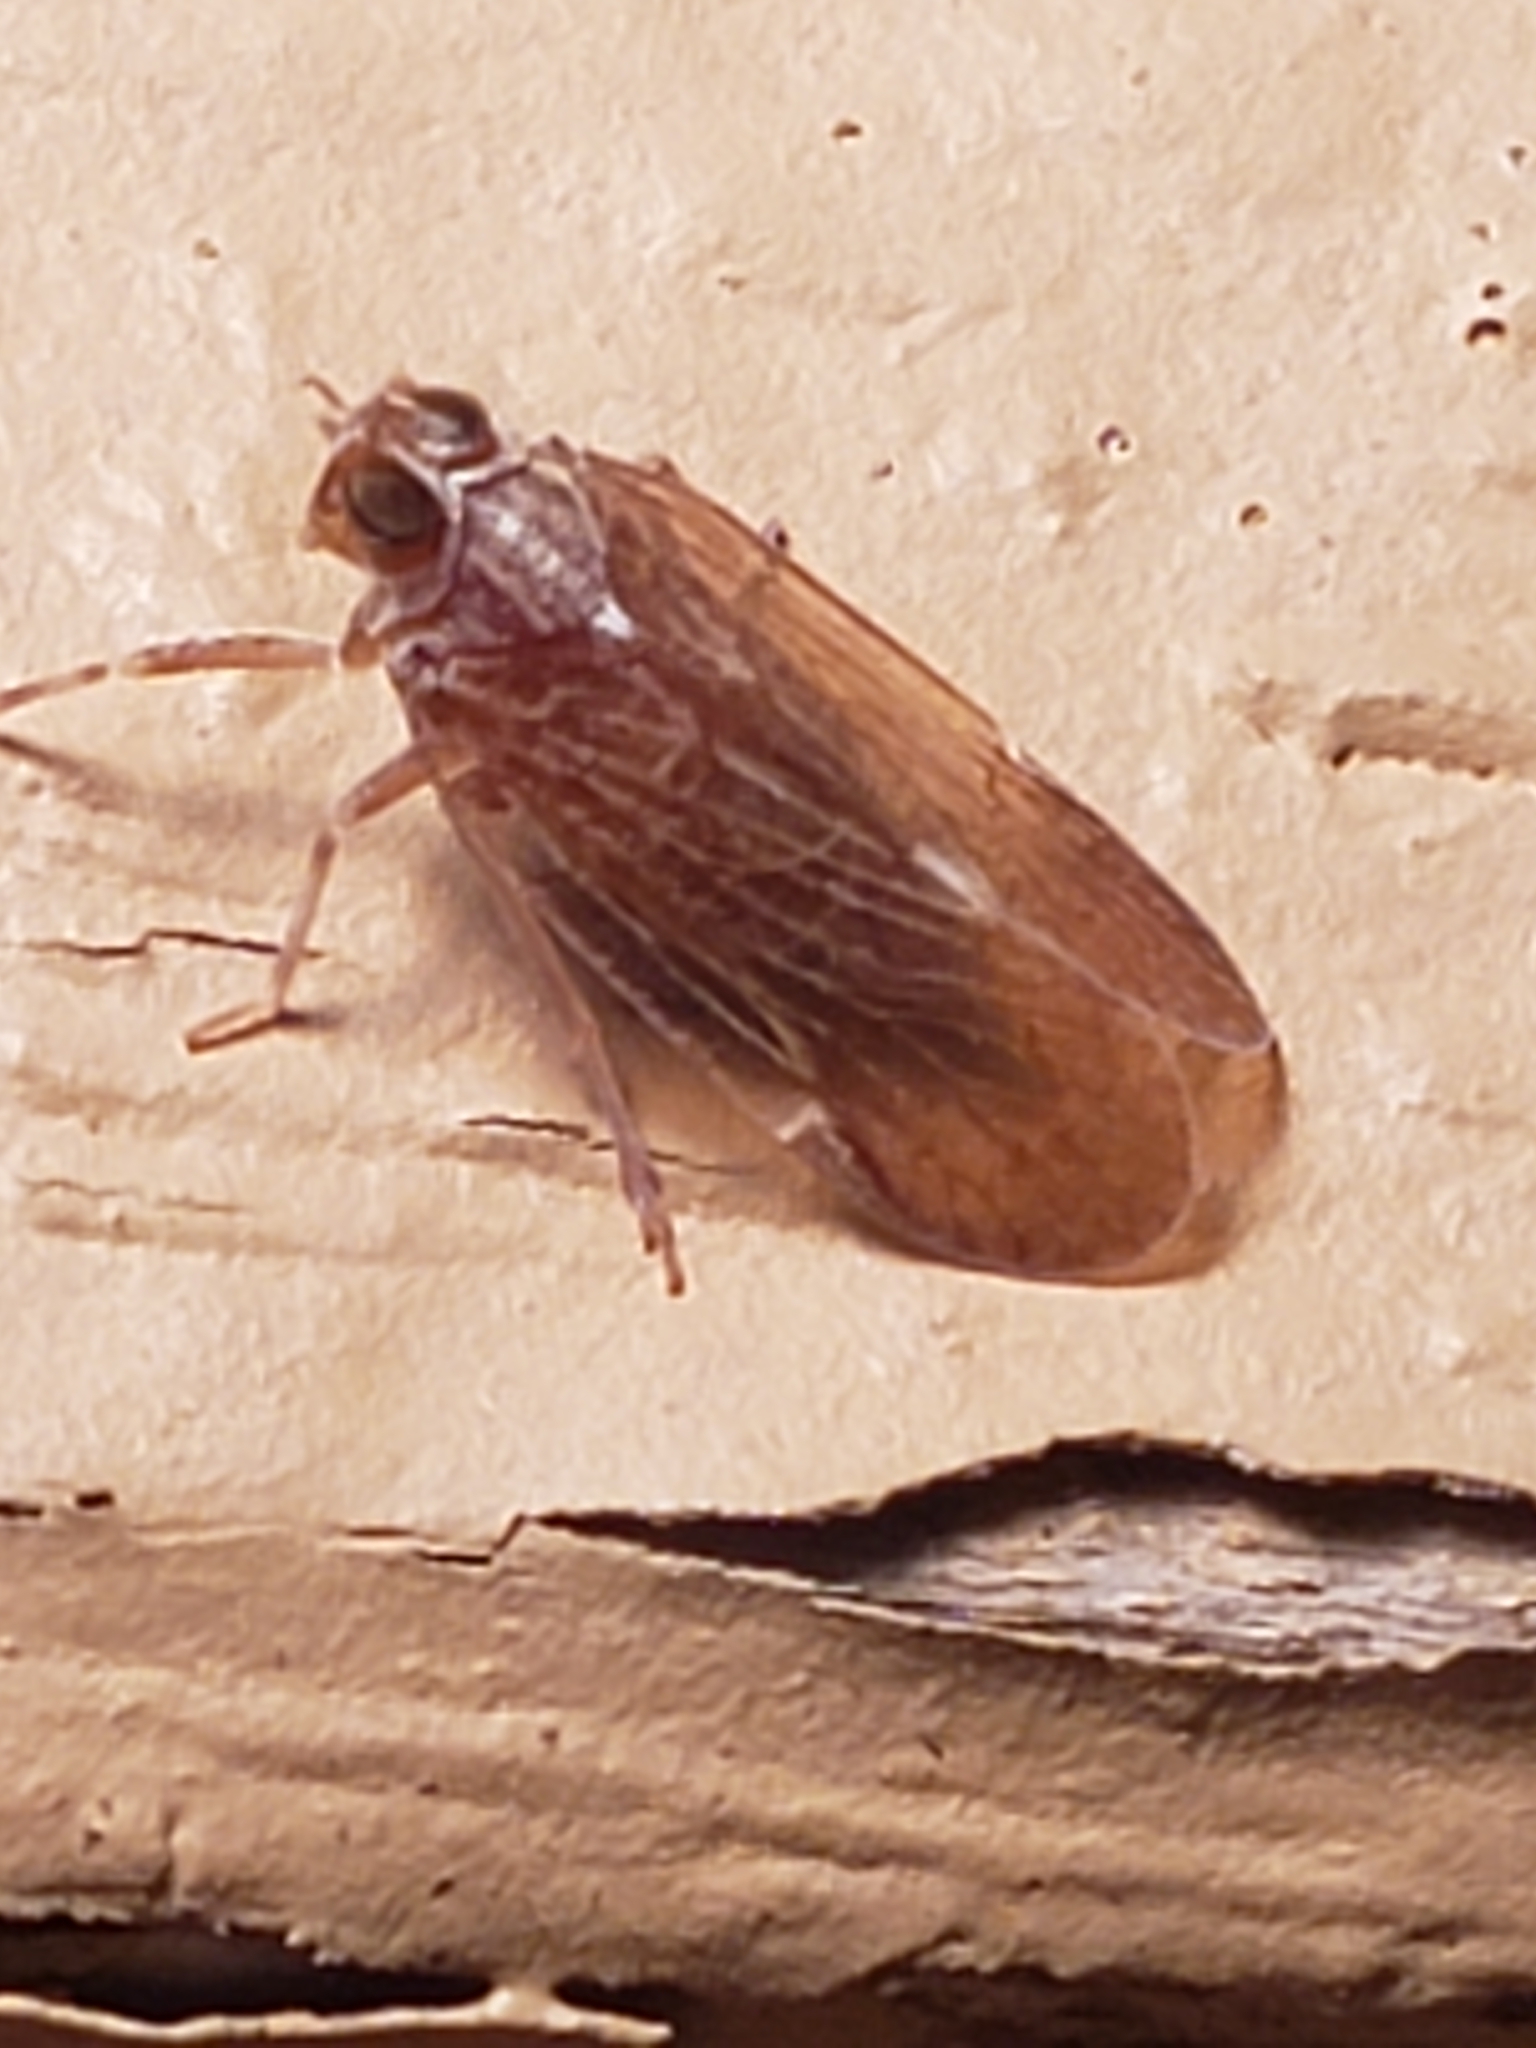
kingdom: Animalia
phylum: Arthropoda
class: Insecta
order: Hemiptera
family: Cixiidae
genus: Melanoliarus
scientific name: Melanoliarus placitus
